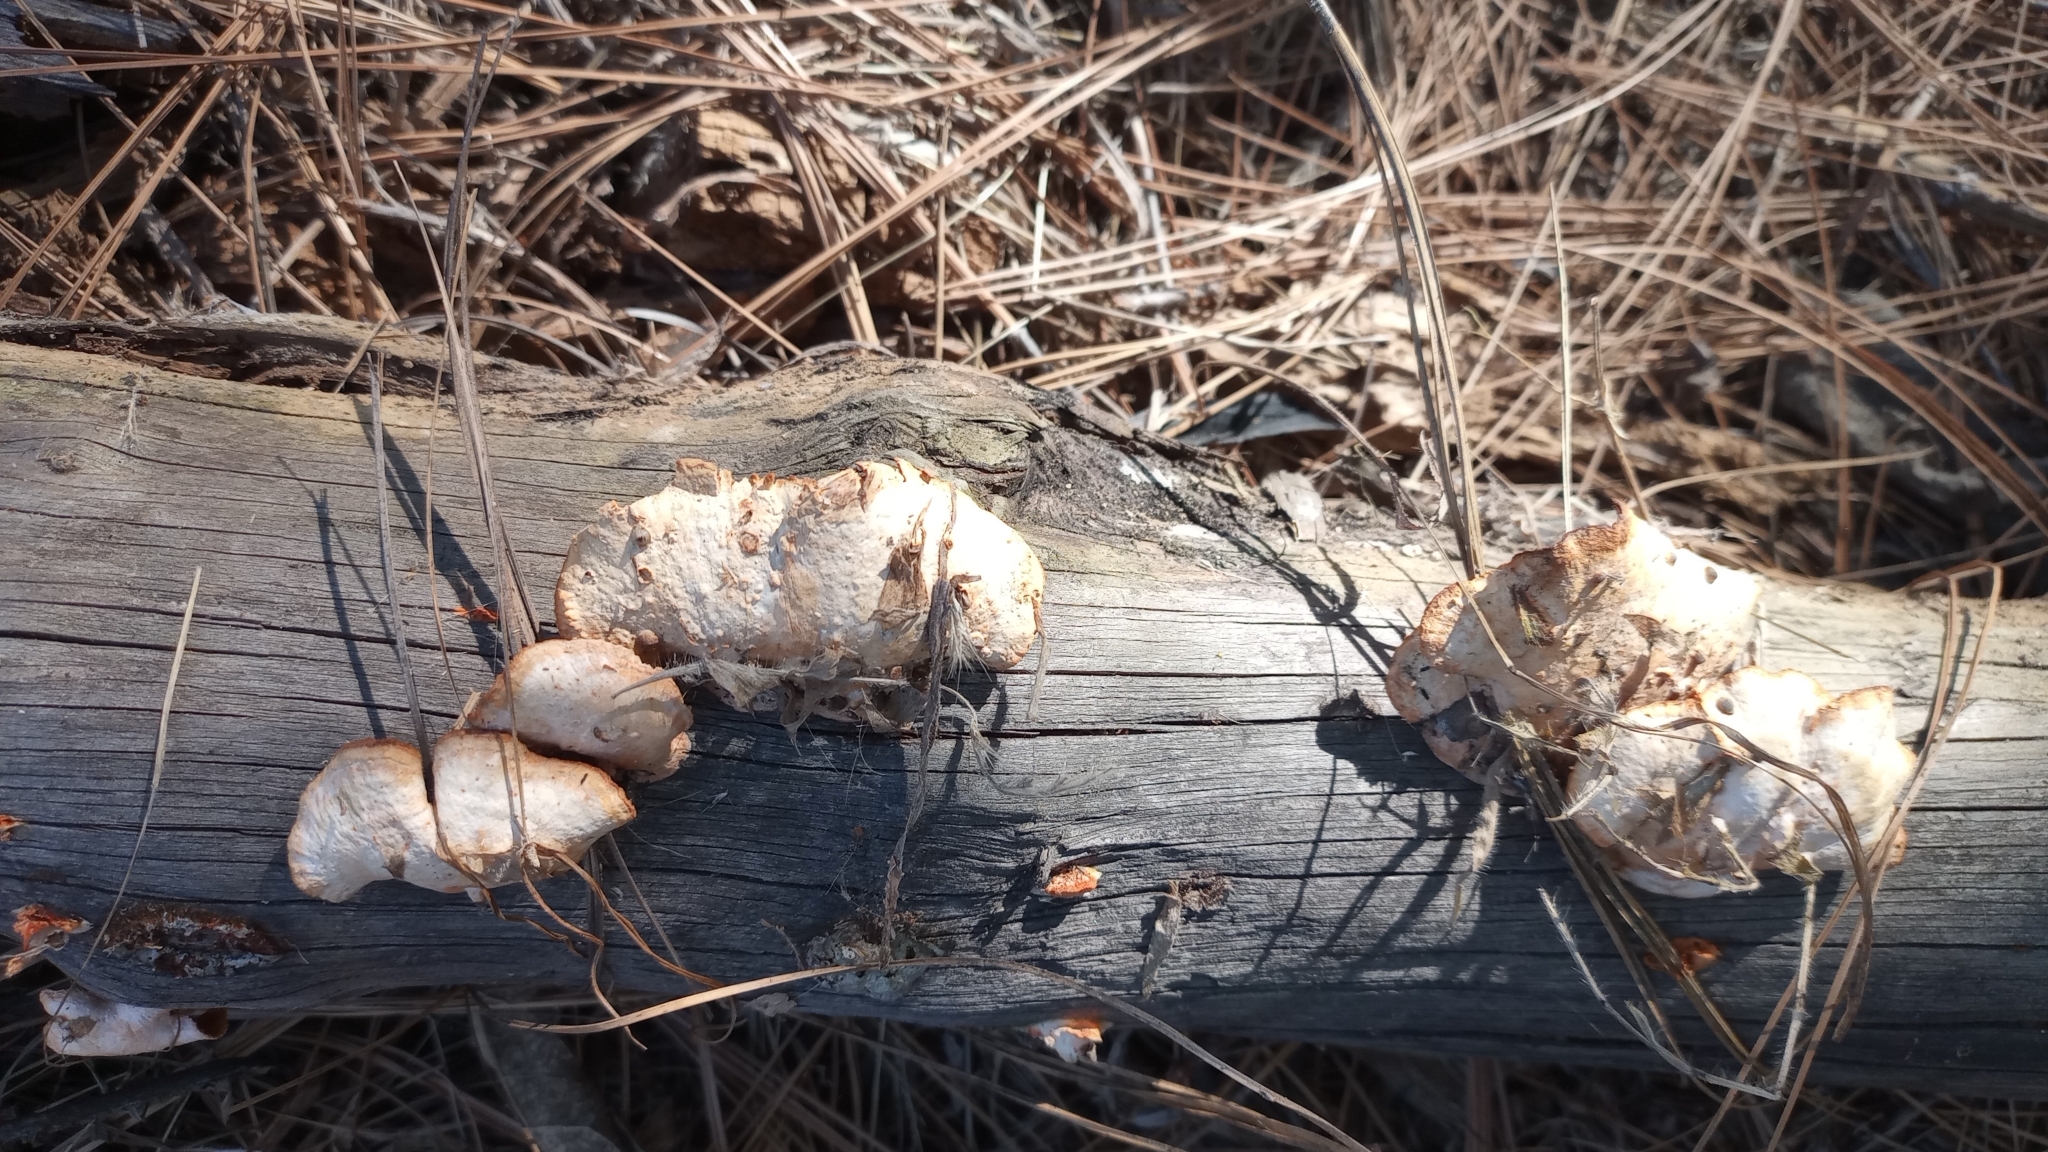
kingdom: Fungi
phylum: Basidiomycota
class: Agaricomycetes
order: Polyporales
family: Polyporaceae
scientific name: Polyporaceae
